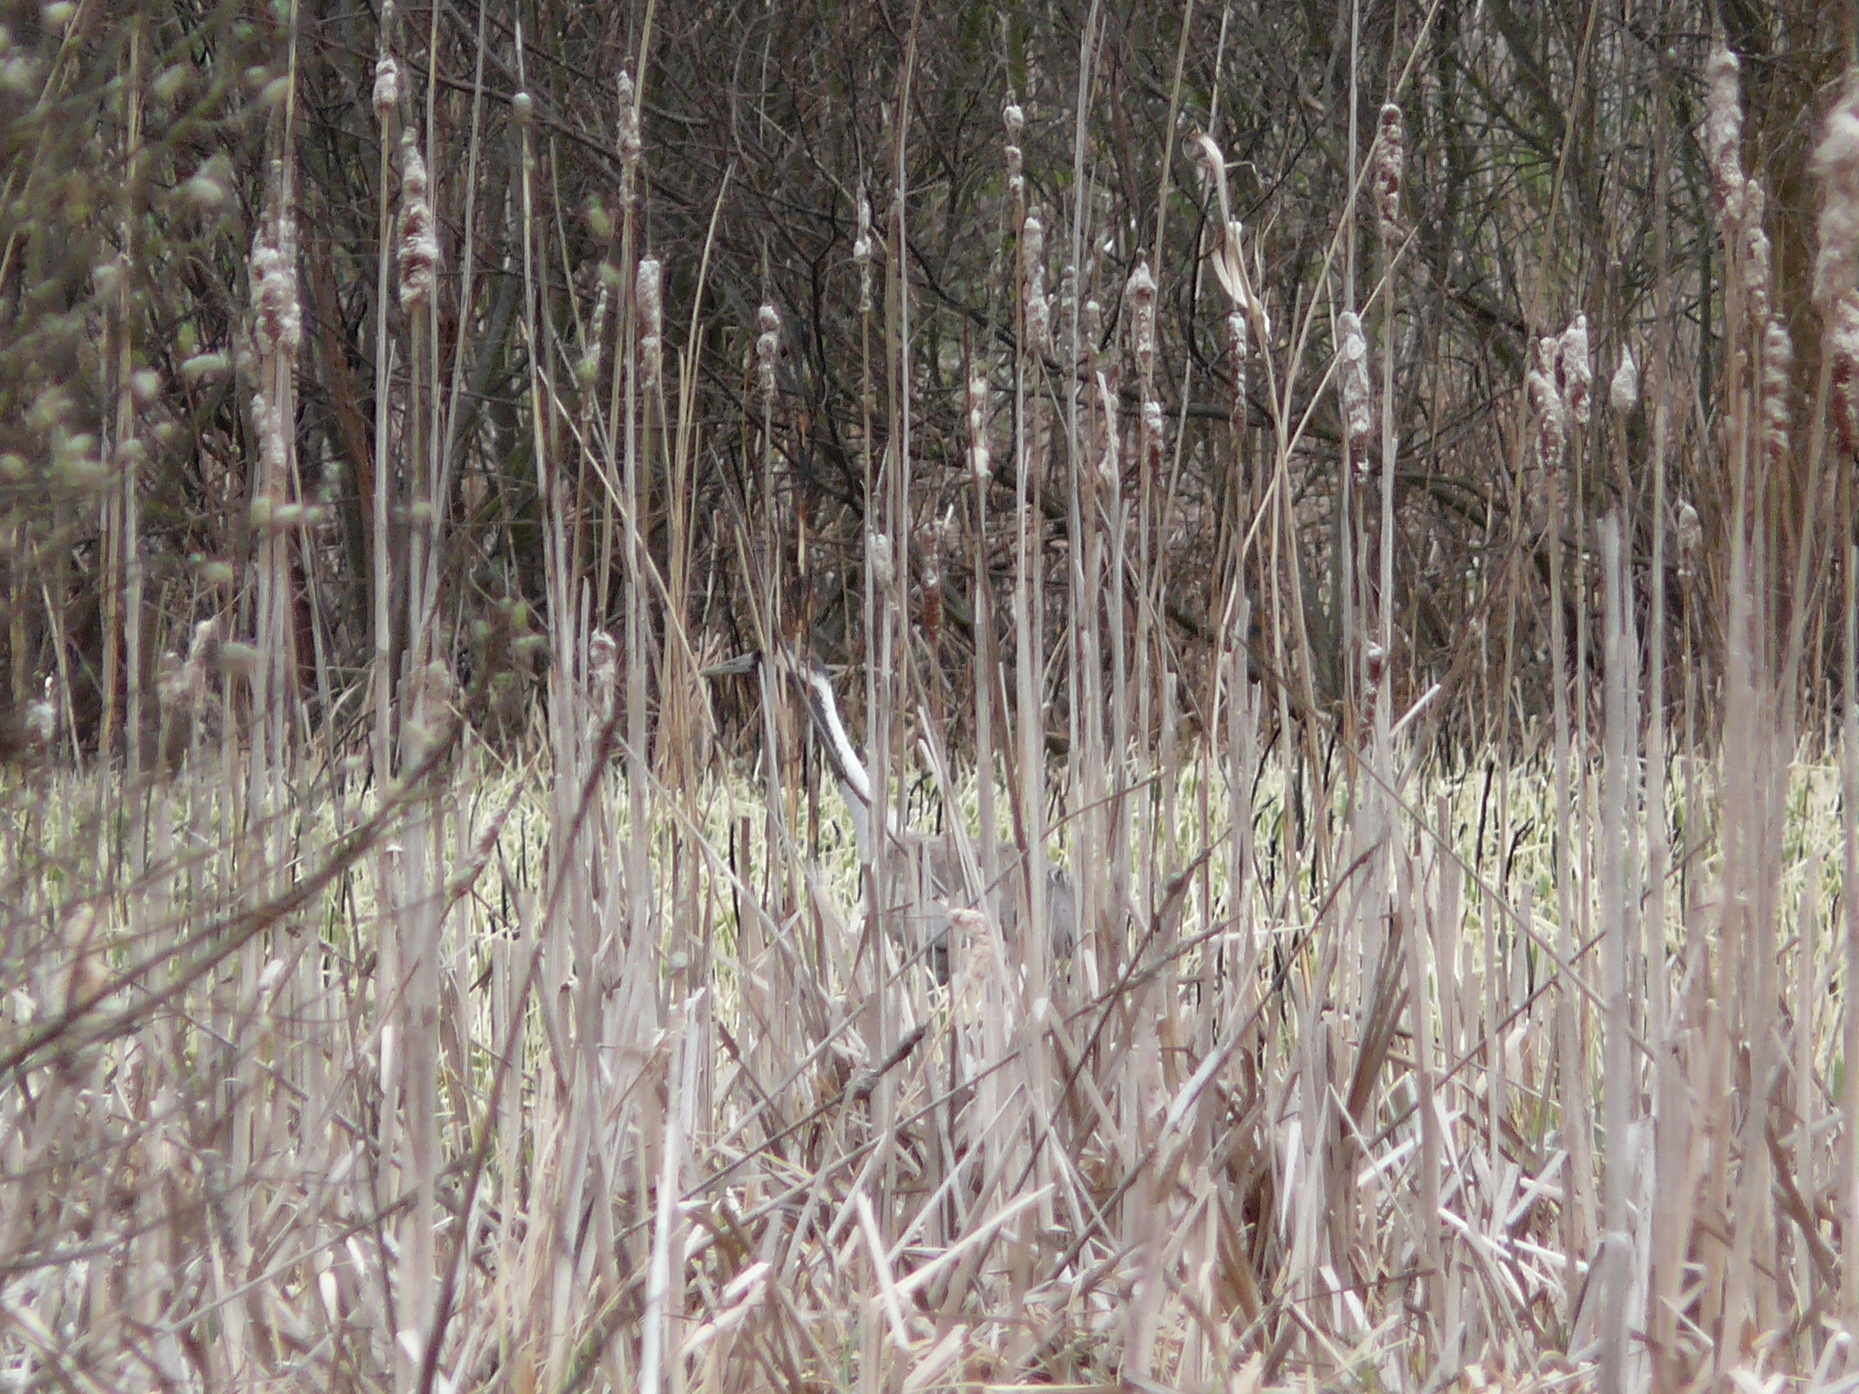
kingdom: Animalia
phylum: Chordata
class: Aves
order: Gruiformes
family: Gruidae
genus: Grus
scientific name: Grus grus
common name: Common crane
